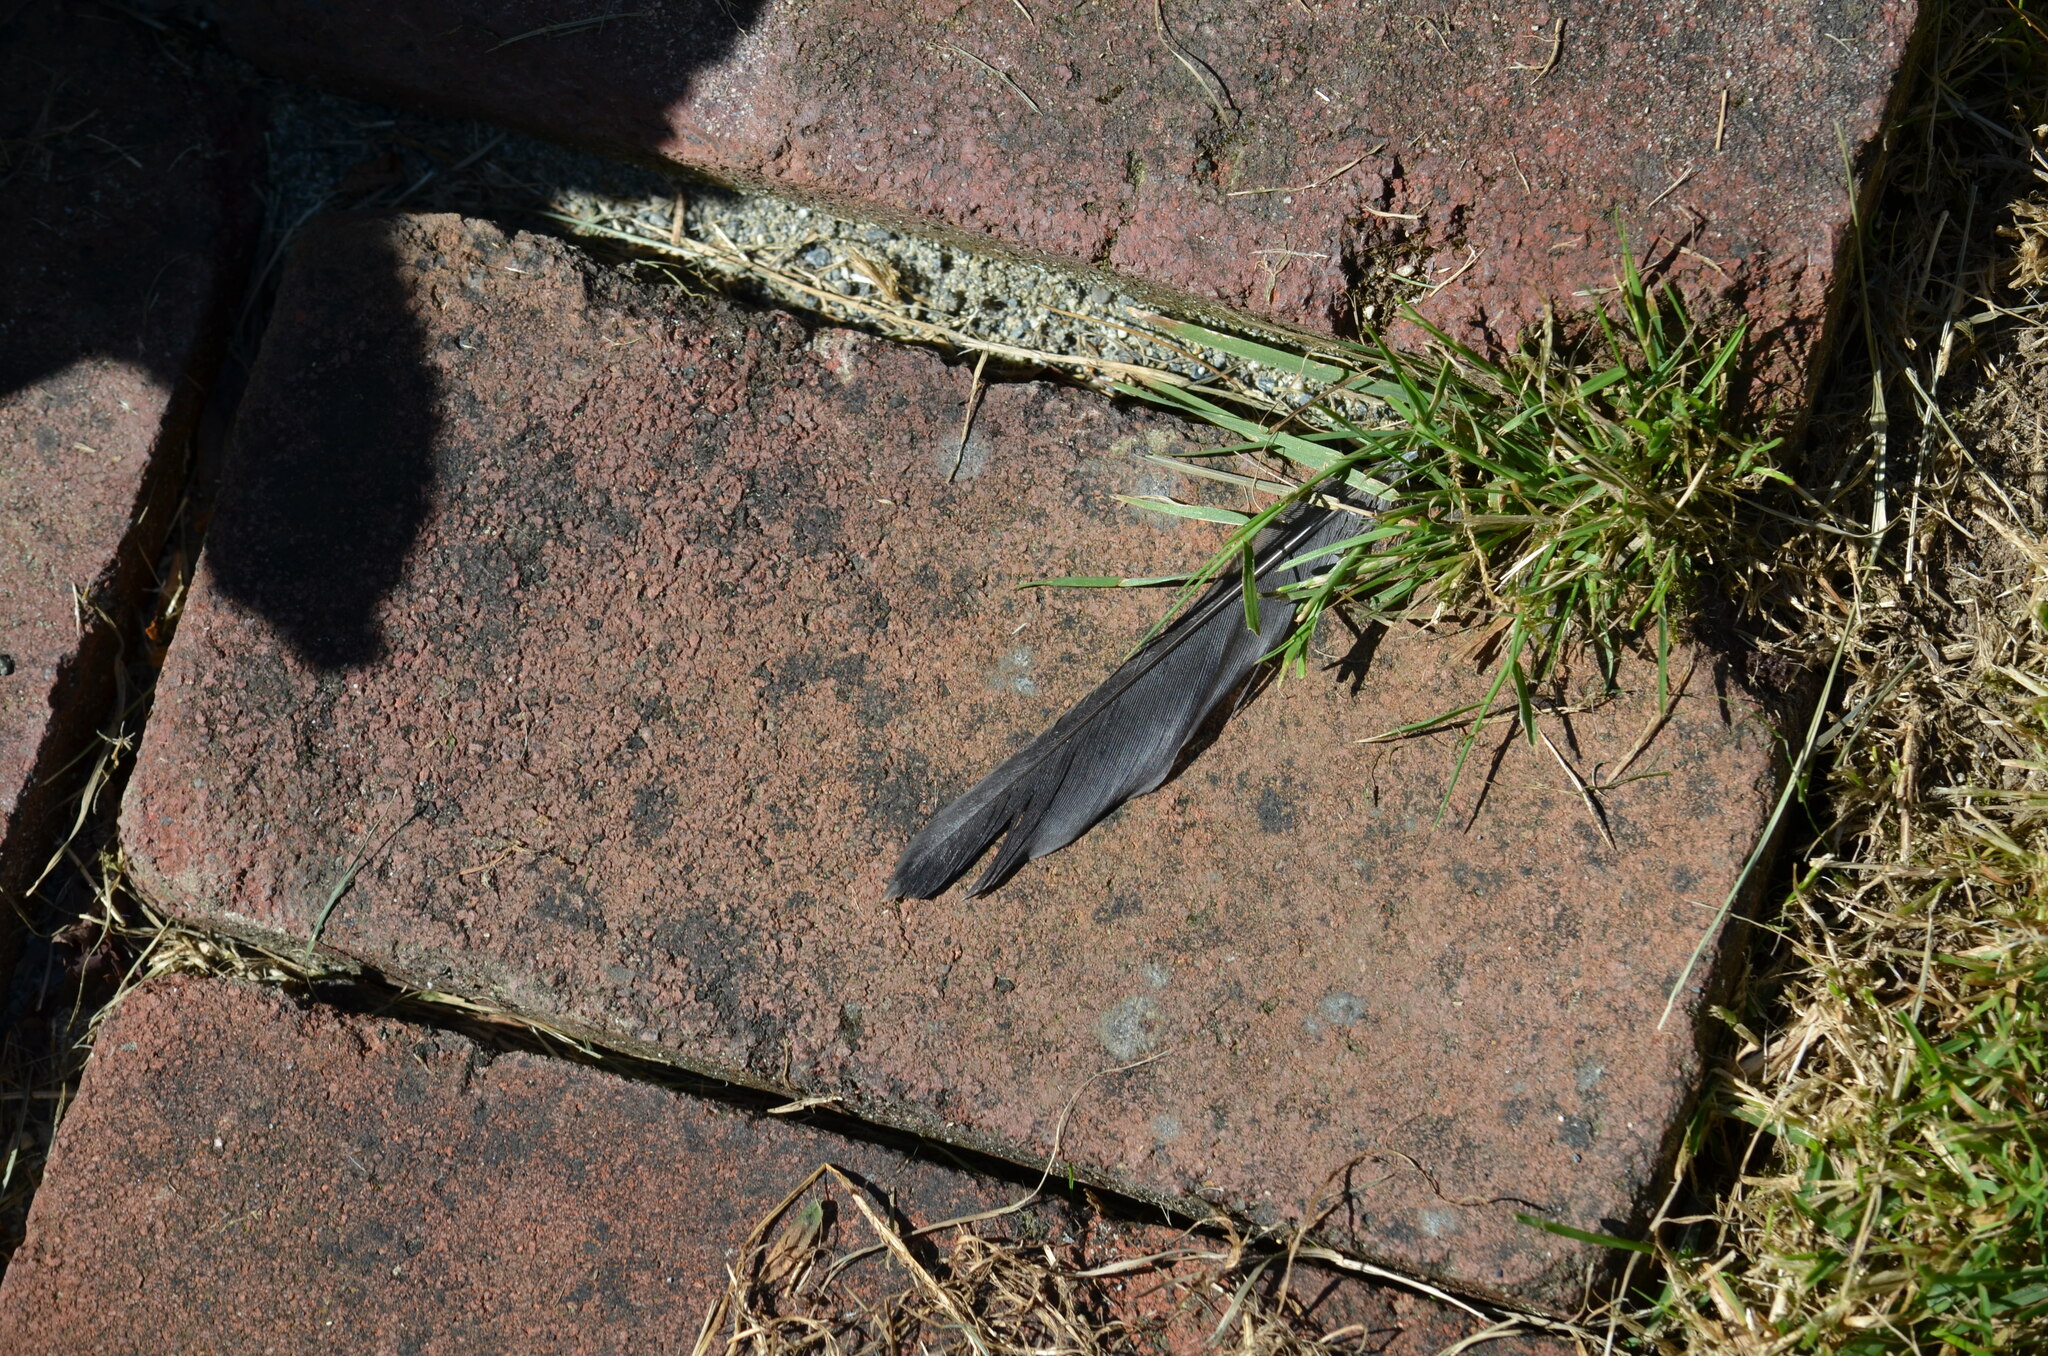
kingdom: Animalia
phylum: Chordata
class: Aves
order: Passeriformes
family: Turdidae
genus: Turdus
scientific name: Turdus migratorius
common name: American robin
